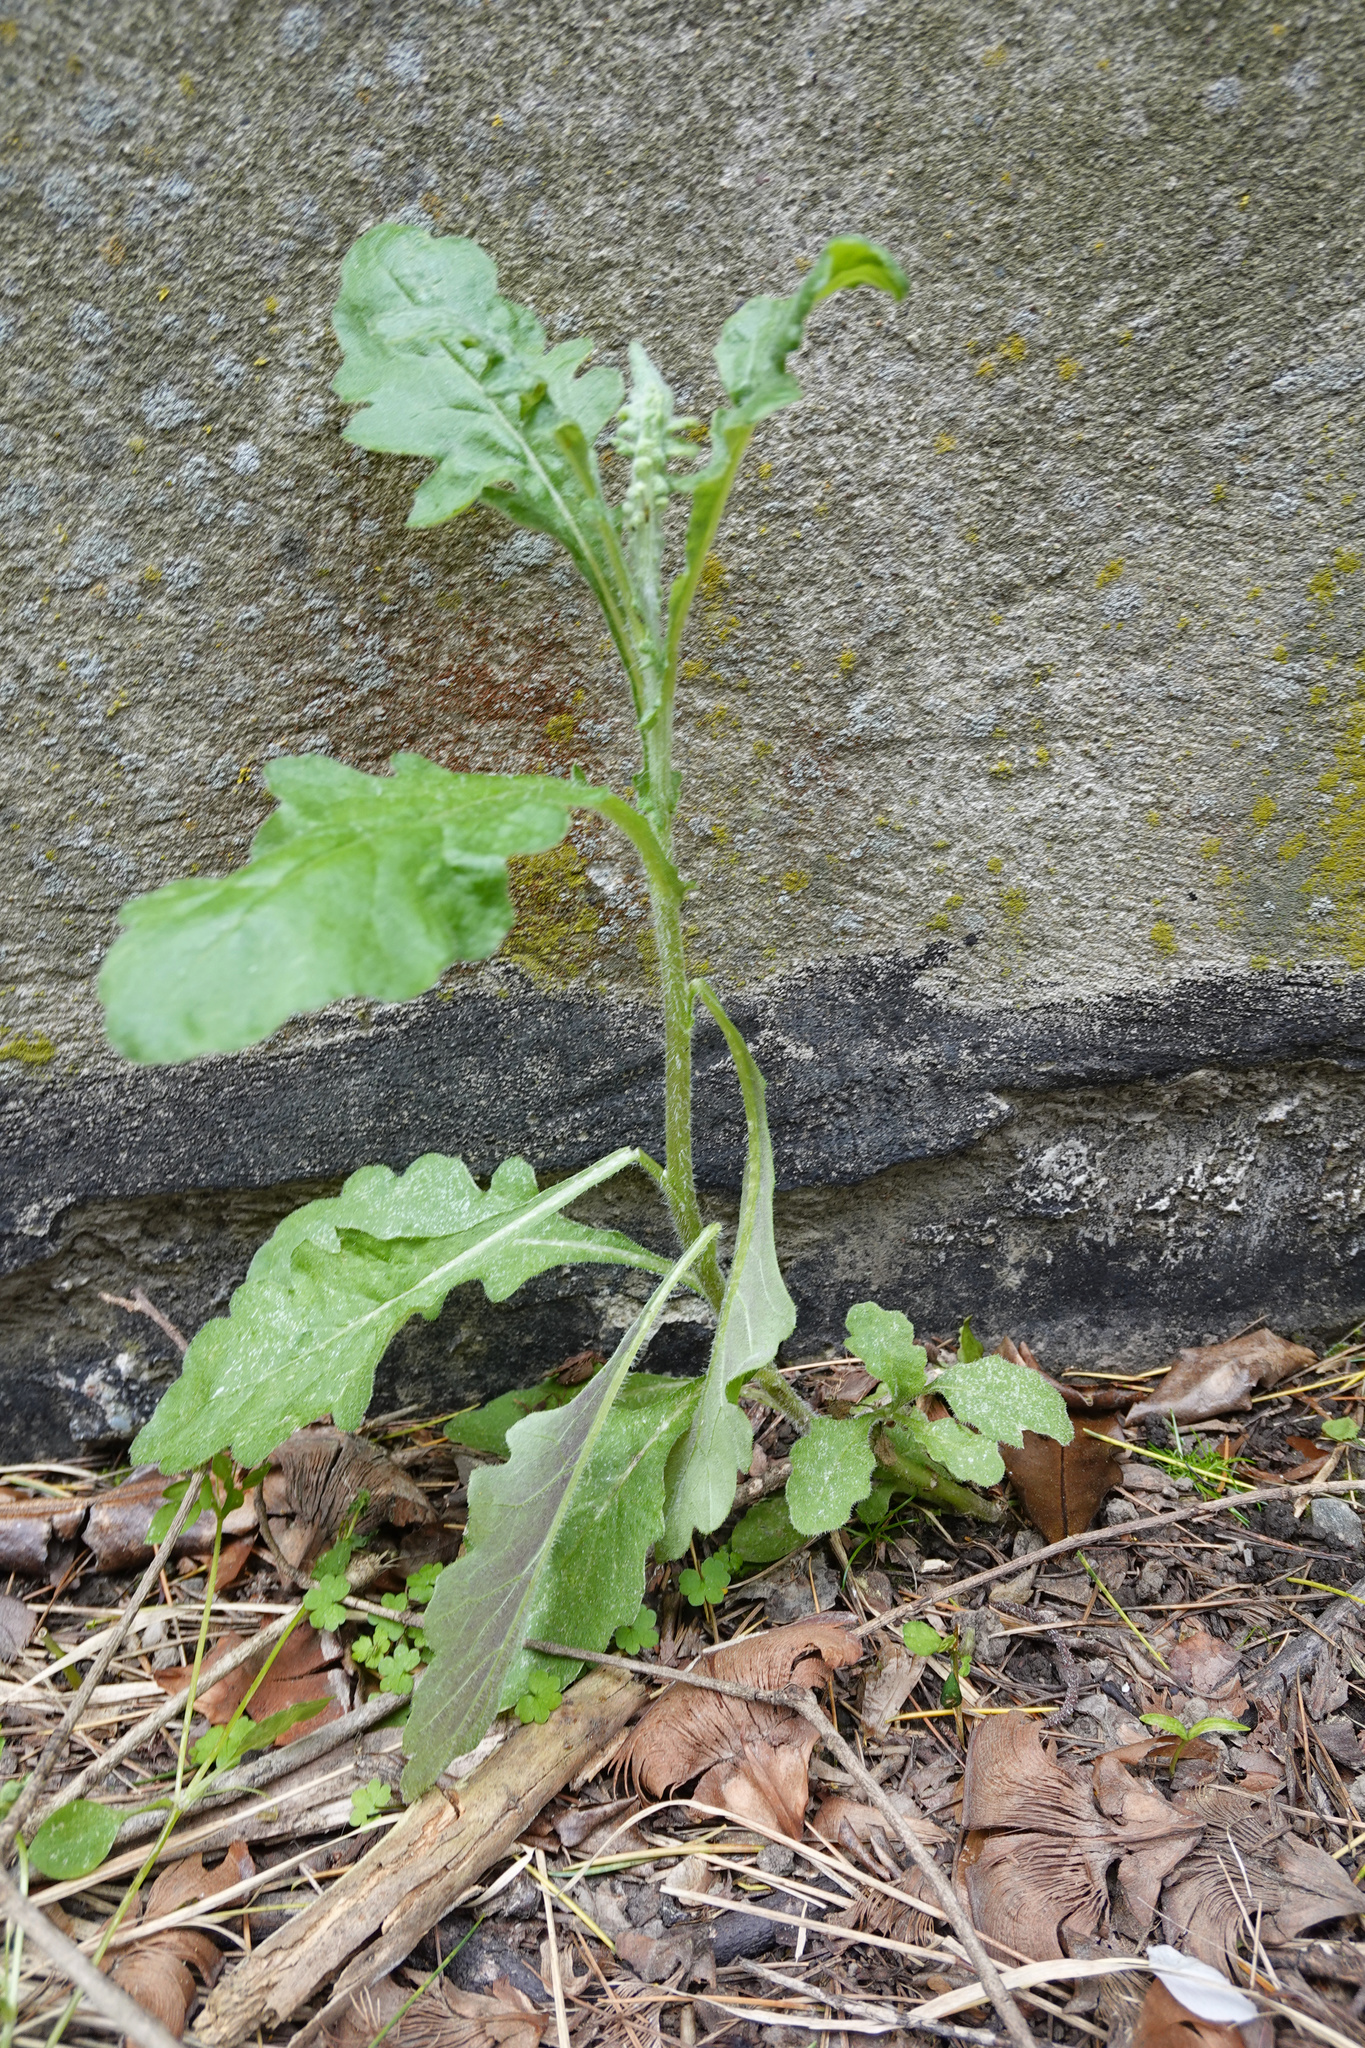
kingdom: Plantae
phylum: Tracheophyta
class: Magnoliopsida
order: Asterales
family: Asteraceae
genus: Senecio
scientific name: Senecio glomeratus
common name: Cutleaf burnweed
